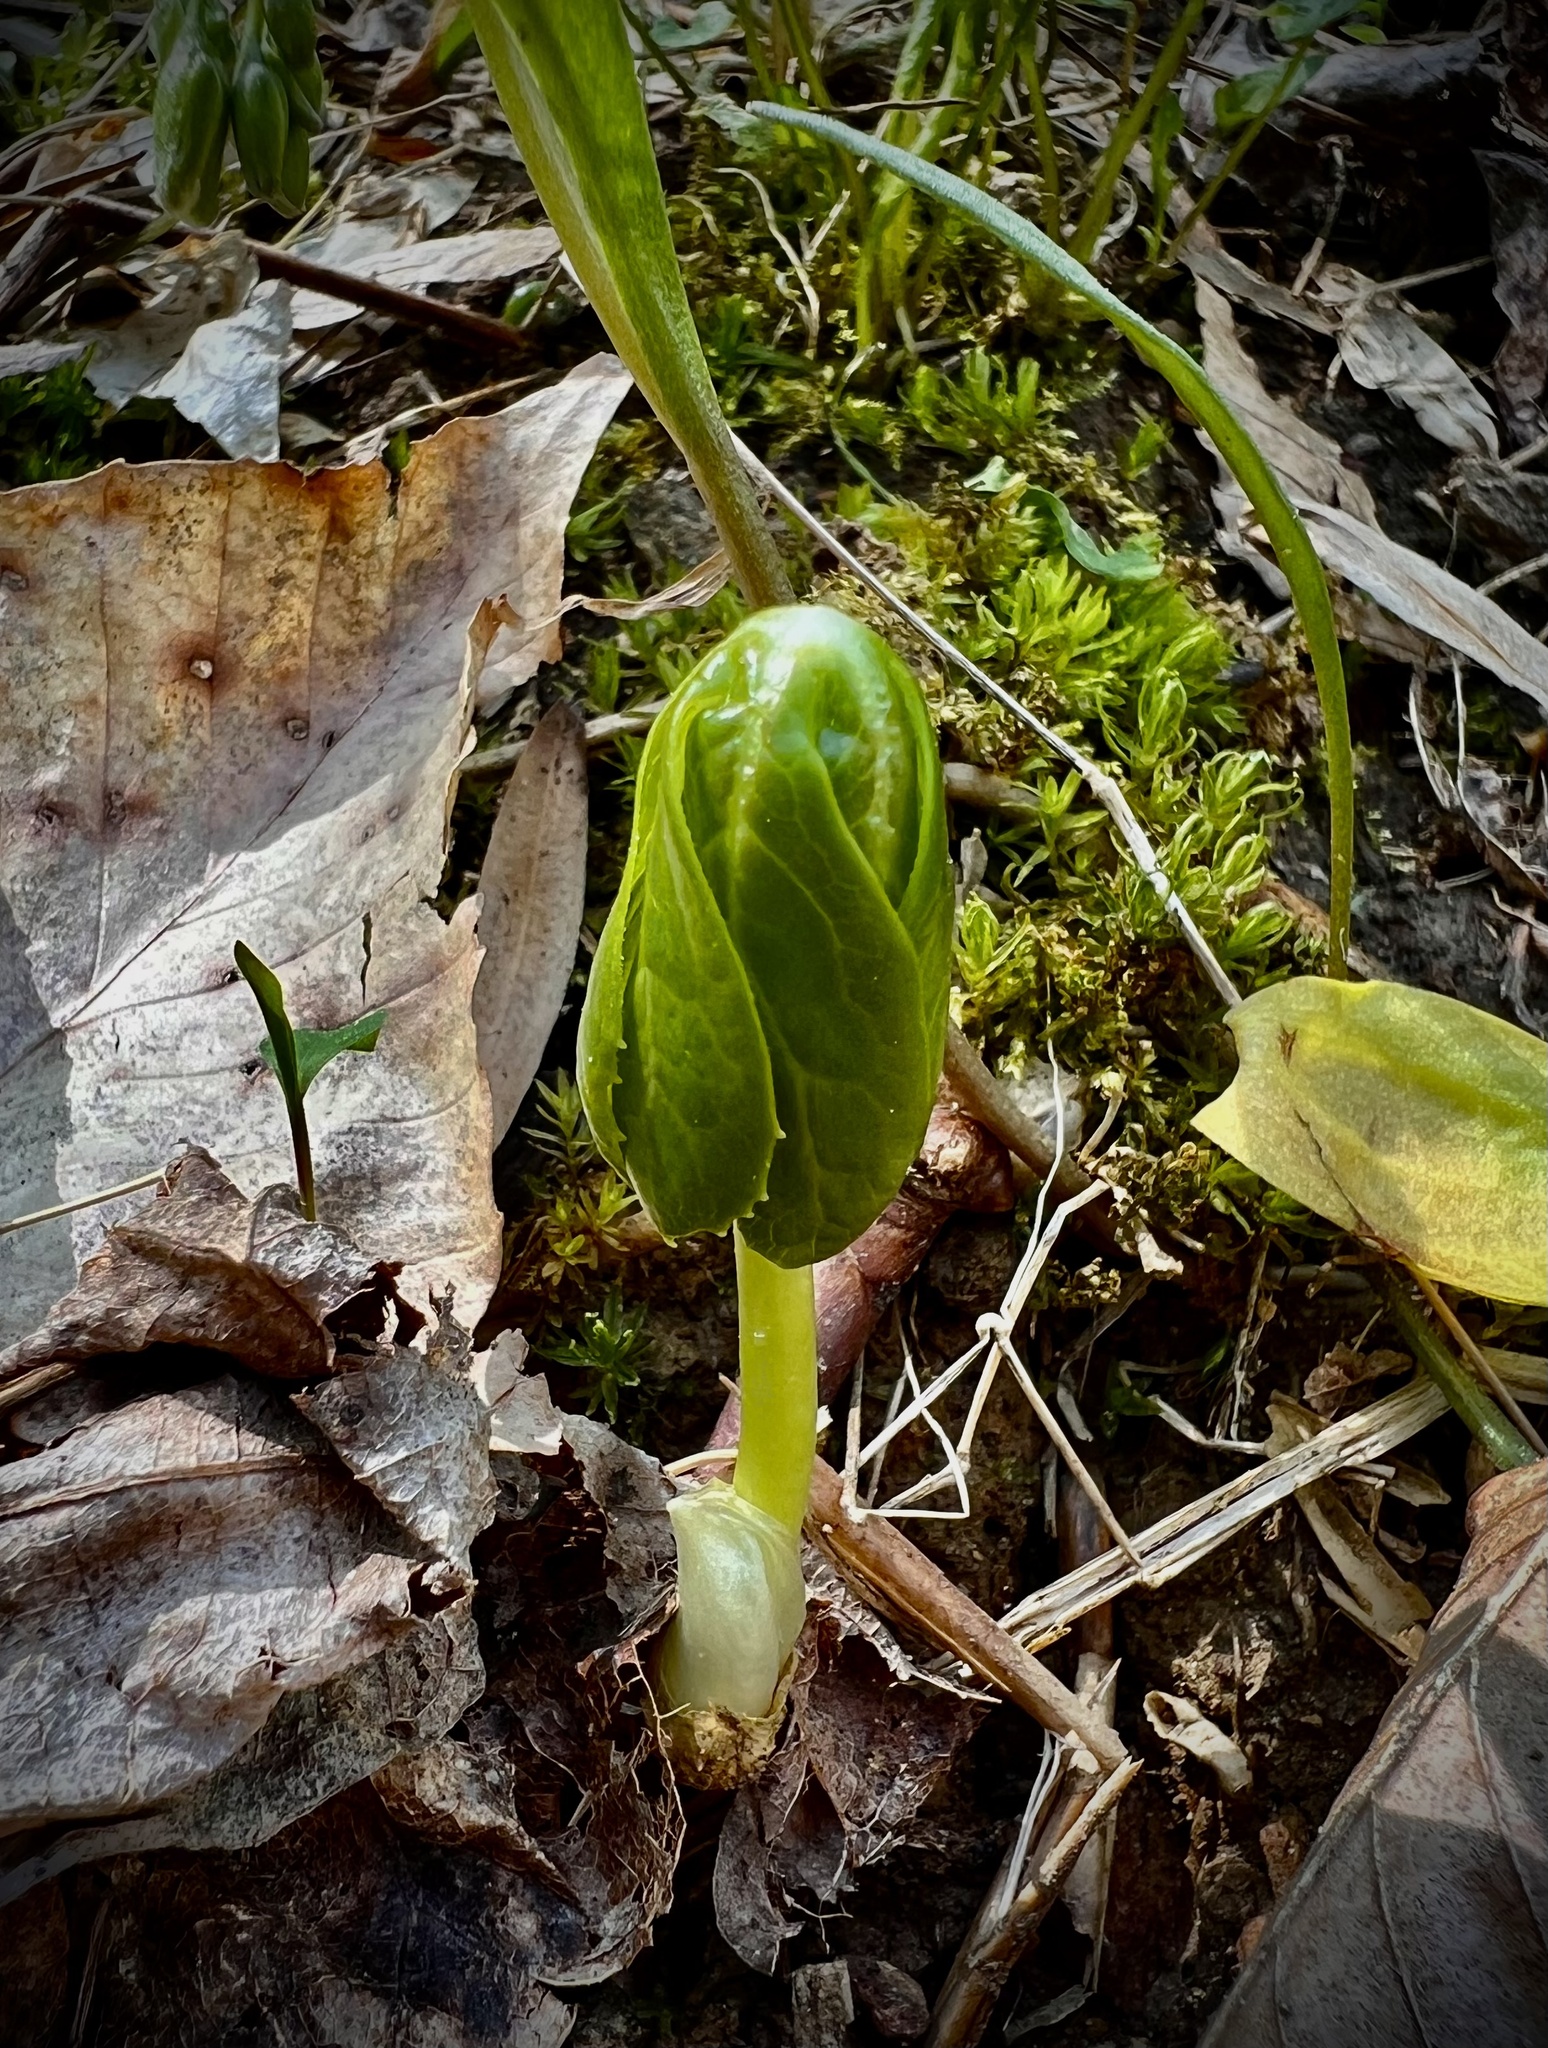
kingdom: Plantae
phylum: Tracheophyta
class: Magnoliopsida
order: Ranunculales
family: Berberidaceae
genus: Podophyllum
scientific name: Podophyllum peltatum
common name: Wild mandrake
